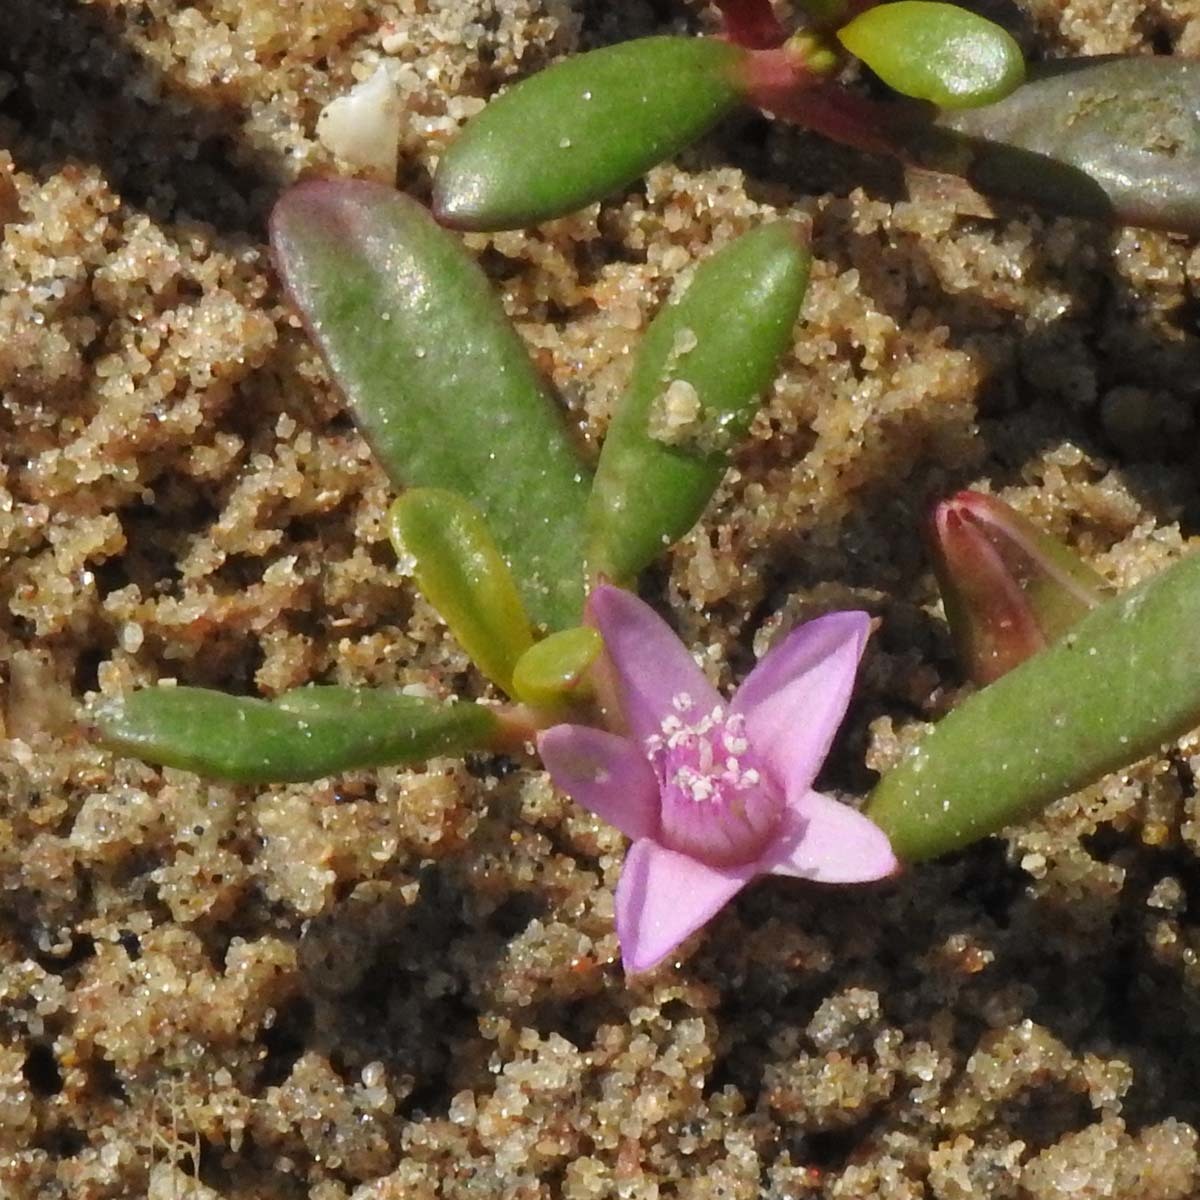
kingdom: Plantae
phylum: Tracheophyta
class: Magnoliopsida
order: Caryophyllales
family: Aizoaceae
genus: Sesuvium
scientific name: Sesuvium portulacastrum
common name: Sea-purslane
